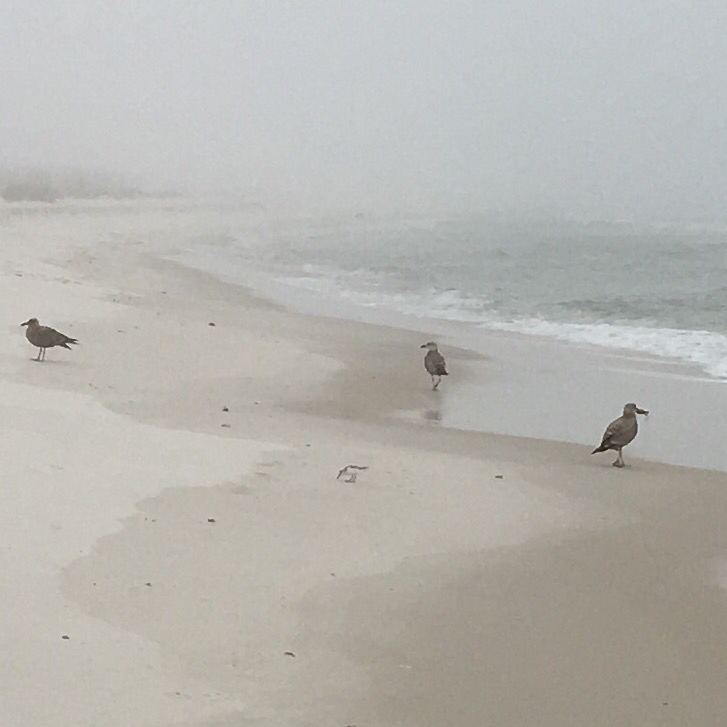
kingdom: Animalia
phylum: Chordata
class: Aves
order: Charadriiformes
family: Laridae
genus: Larus
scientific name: Larus argentatus
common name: Herring gull
